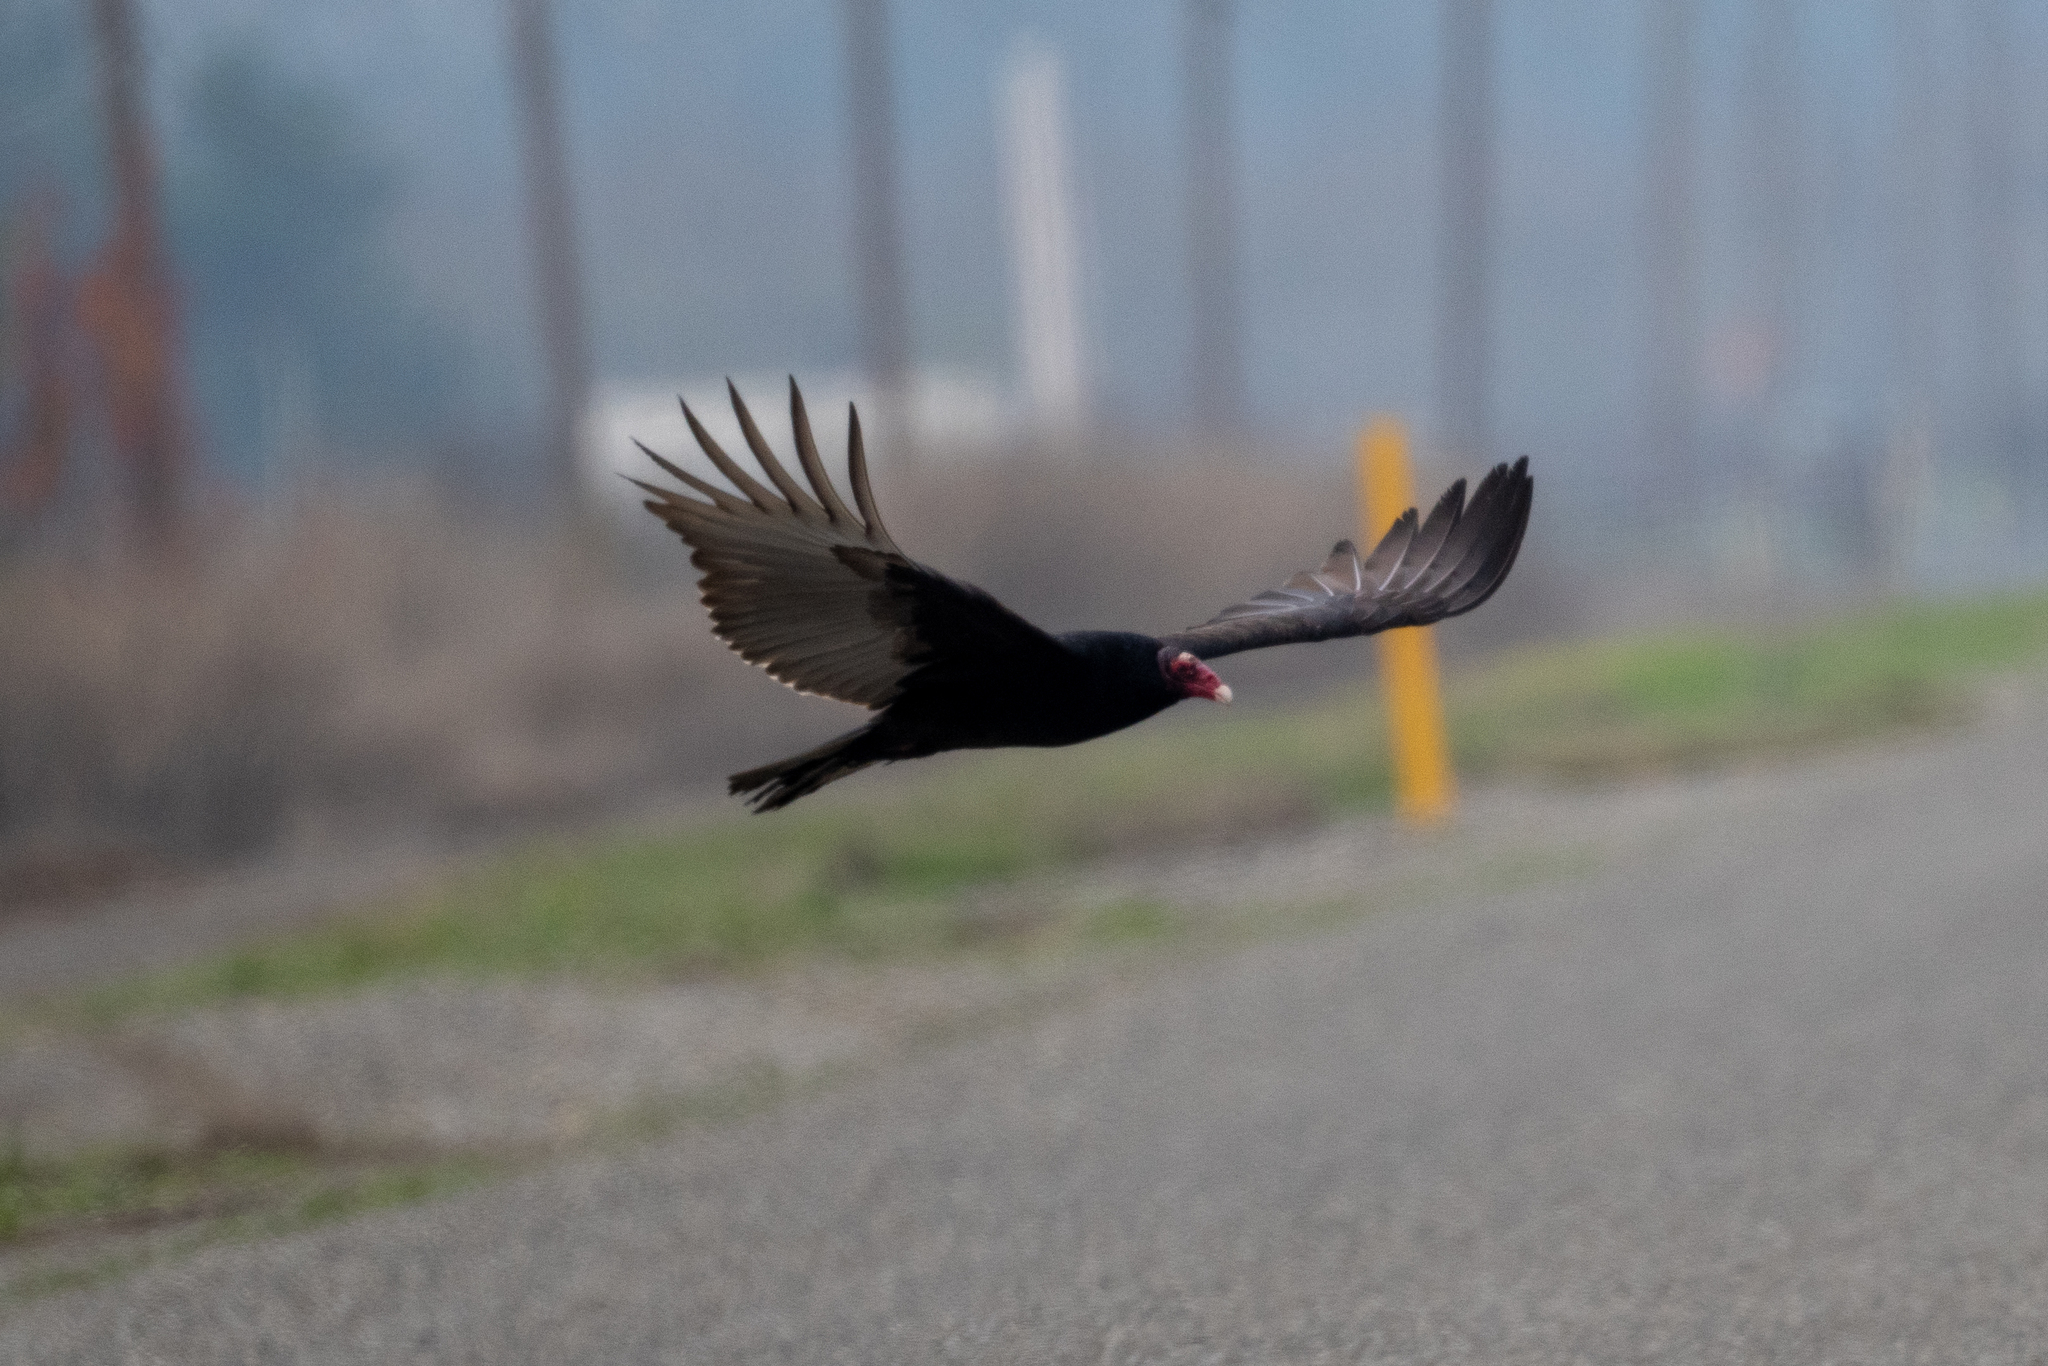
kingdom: Animalia
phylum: Chordata
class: Aves
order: Accipitriformes
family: Cathartidae
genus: Cathartes
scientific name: Cathartes aura
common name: Turkey vulture
